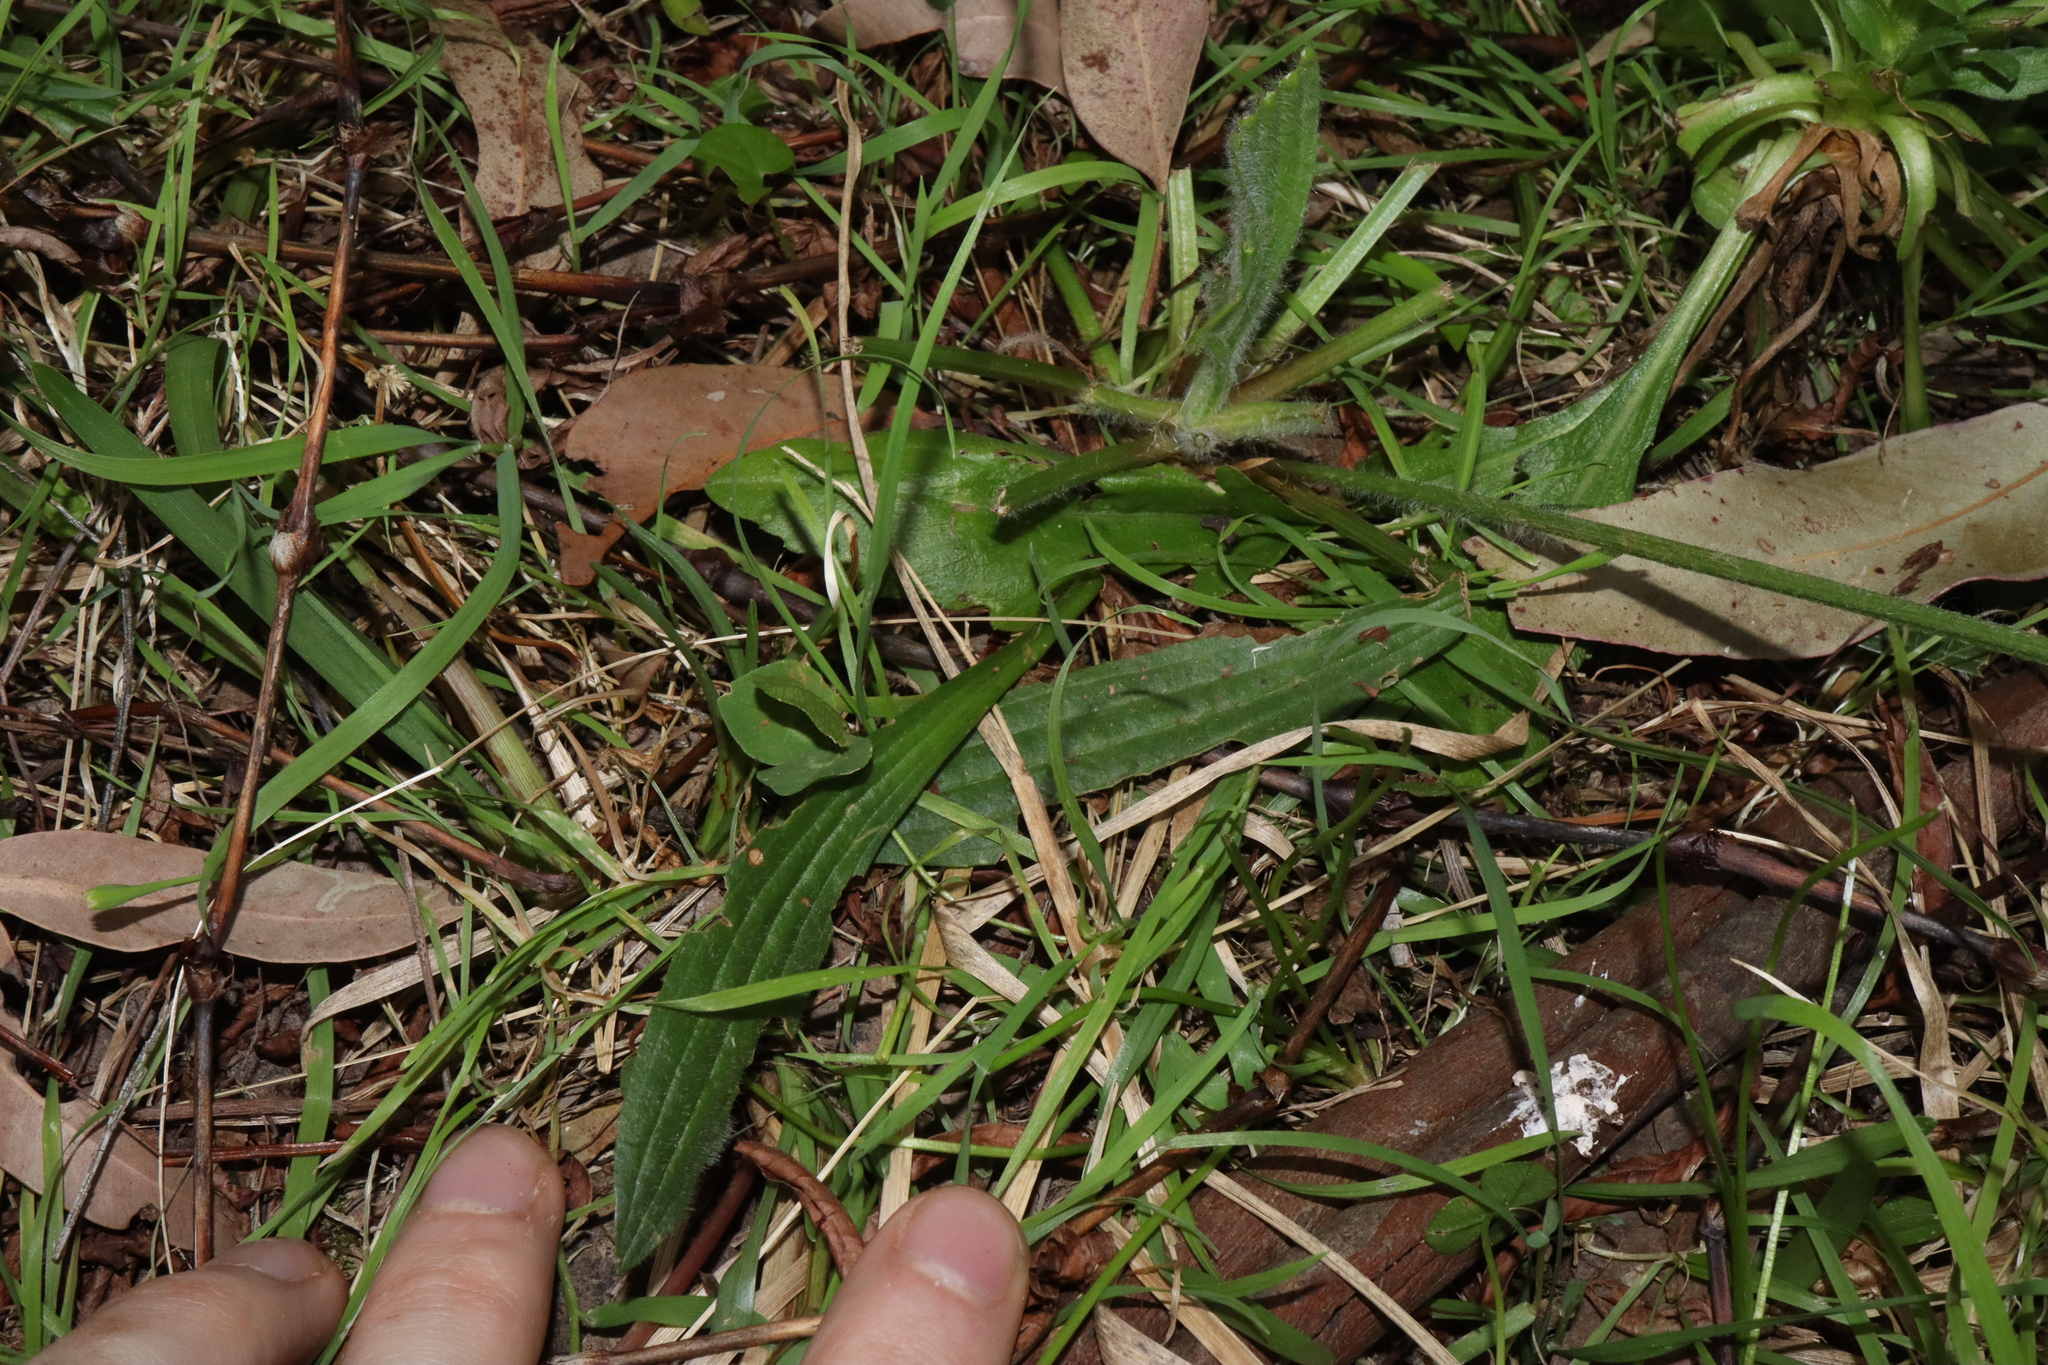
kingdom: Plantae
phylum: Tracheophyta
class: Magnoliopsida
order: Lamiales
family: Plantaginaceae
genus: Plantago
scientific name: Plantago lanceolata
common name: Ribwort plantain
